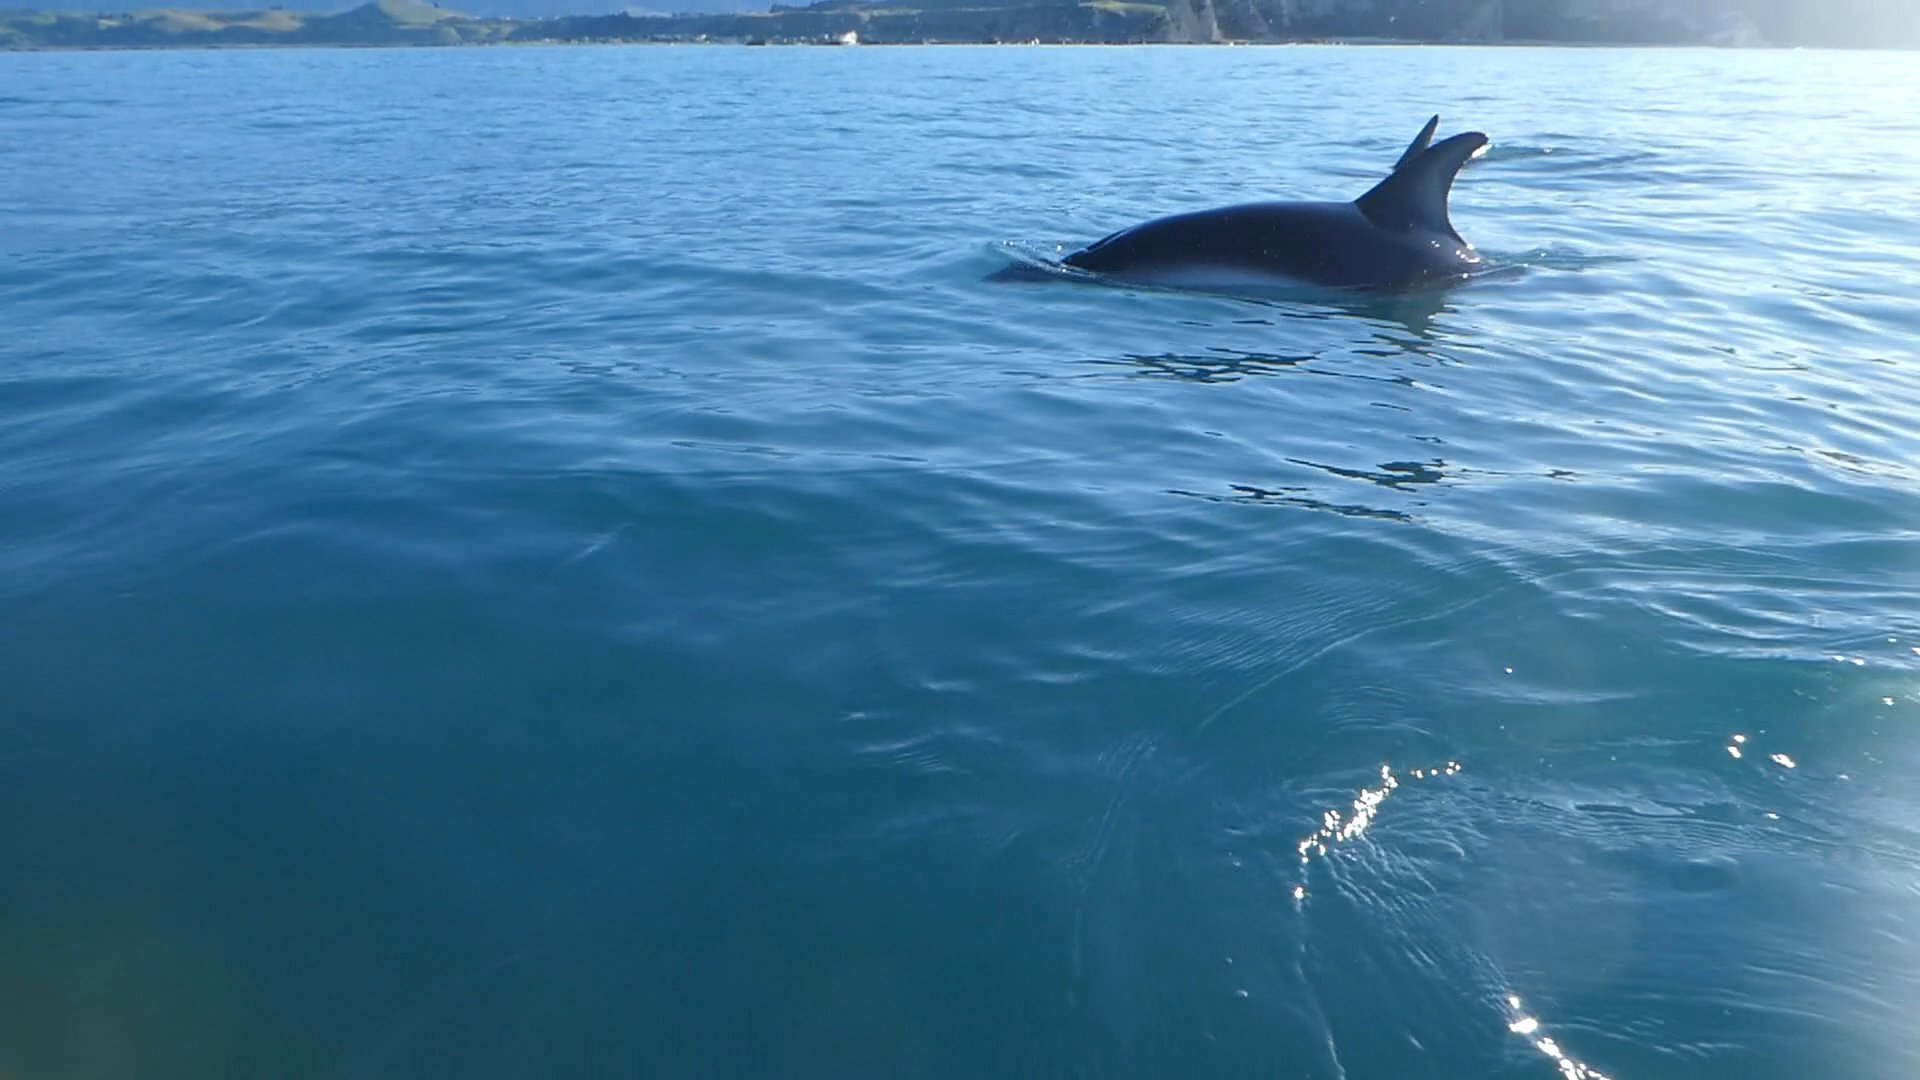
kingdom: Animalia
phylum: Chordata
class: Mammalia
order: Cetacea
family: Delphinidae
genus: Lagenorhynchus
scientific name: Lagenorhynchus obscurus
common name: Dusky dolphin
